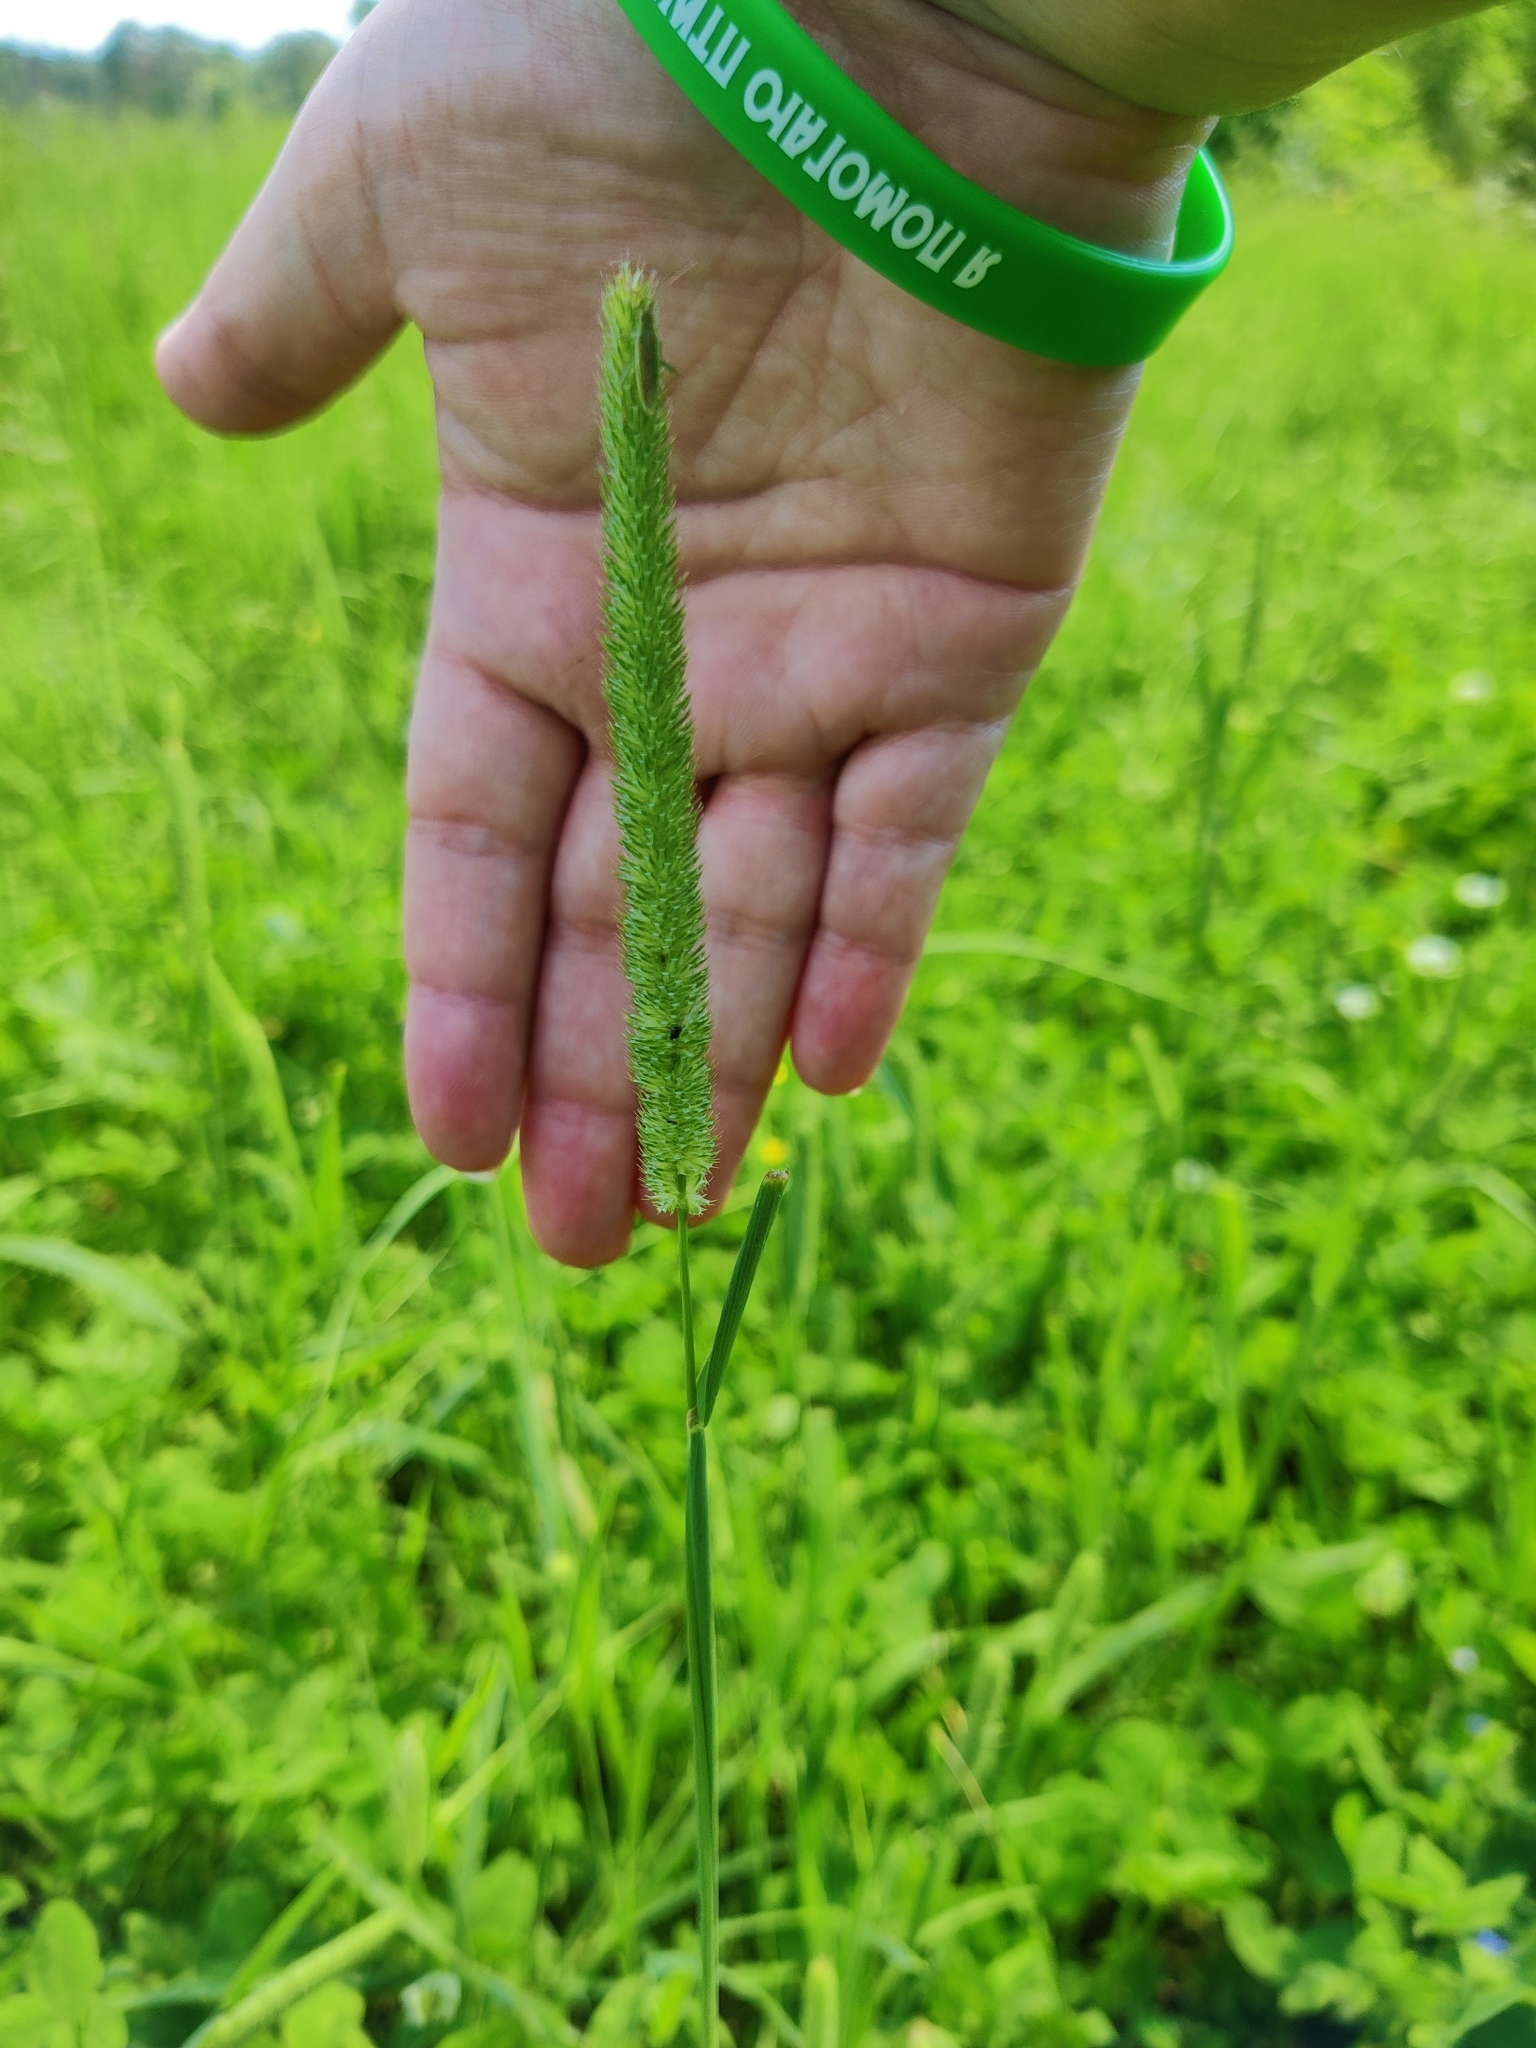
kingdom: Plantae
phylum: Tracheophyta
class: Liliopsida
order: Poales
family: Poaceae
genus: Phleum
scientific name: Phleum pratense
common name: Timothy grass
